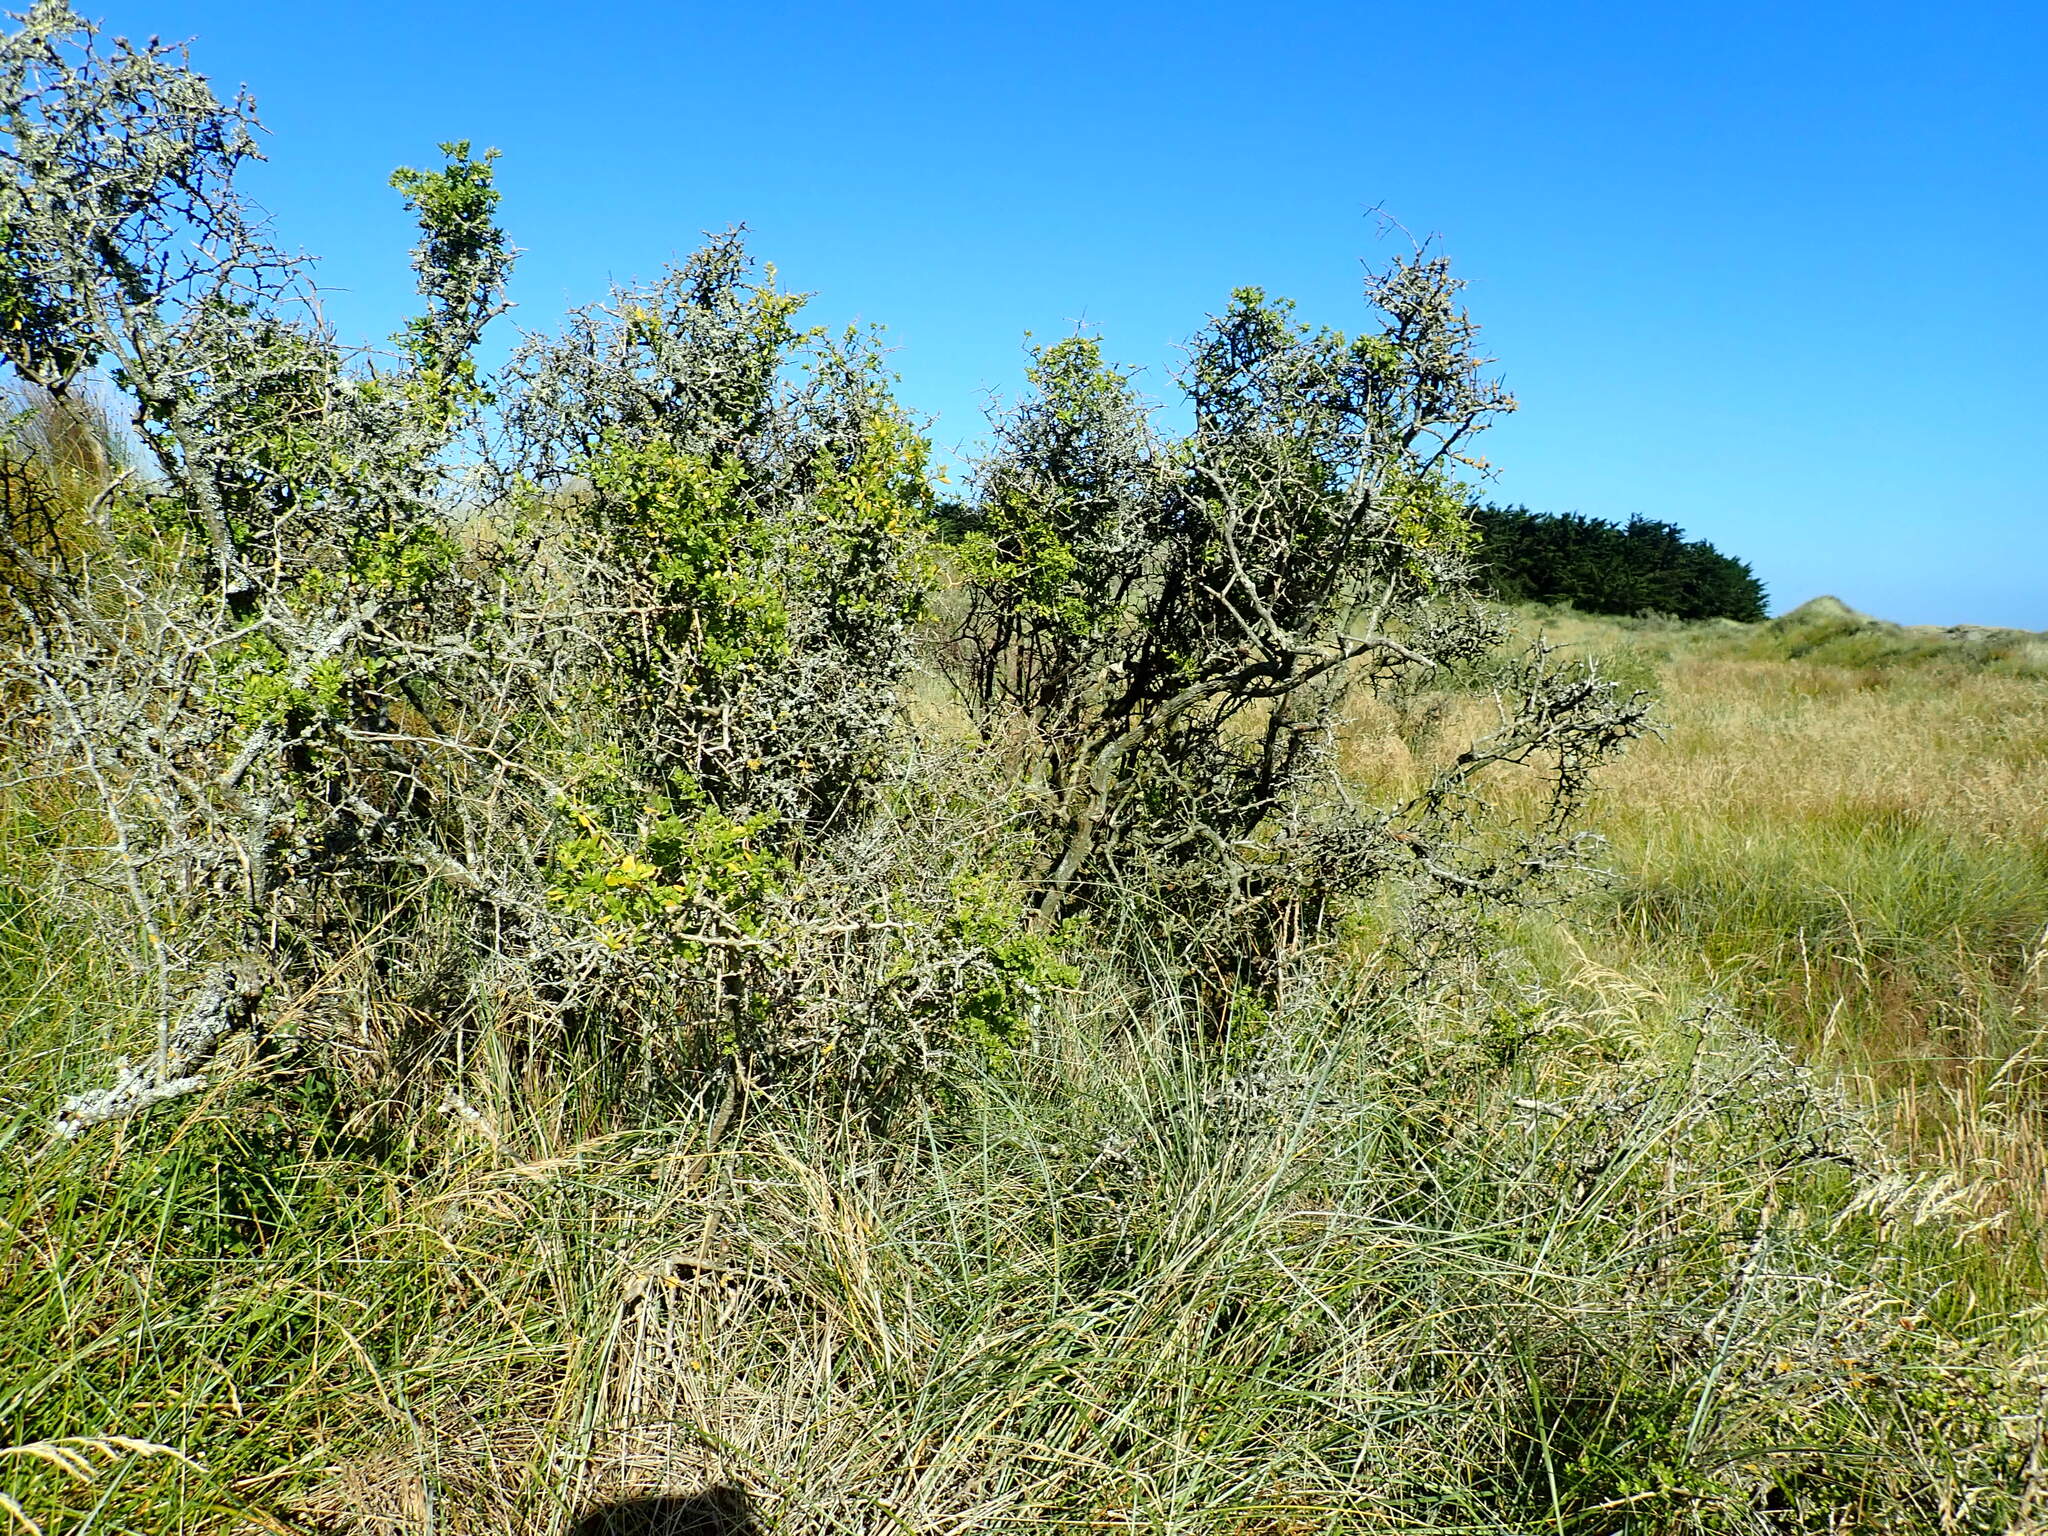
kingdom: Plantae
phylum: Tracheophyta
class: Magnoliopsida
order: Solanales
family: Solanaceae
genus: Lycium
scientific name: Lycium ferocissimum
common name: African boxthorn
